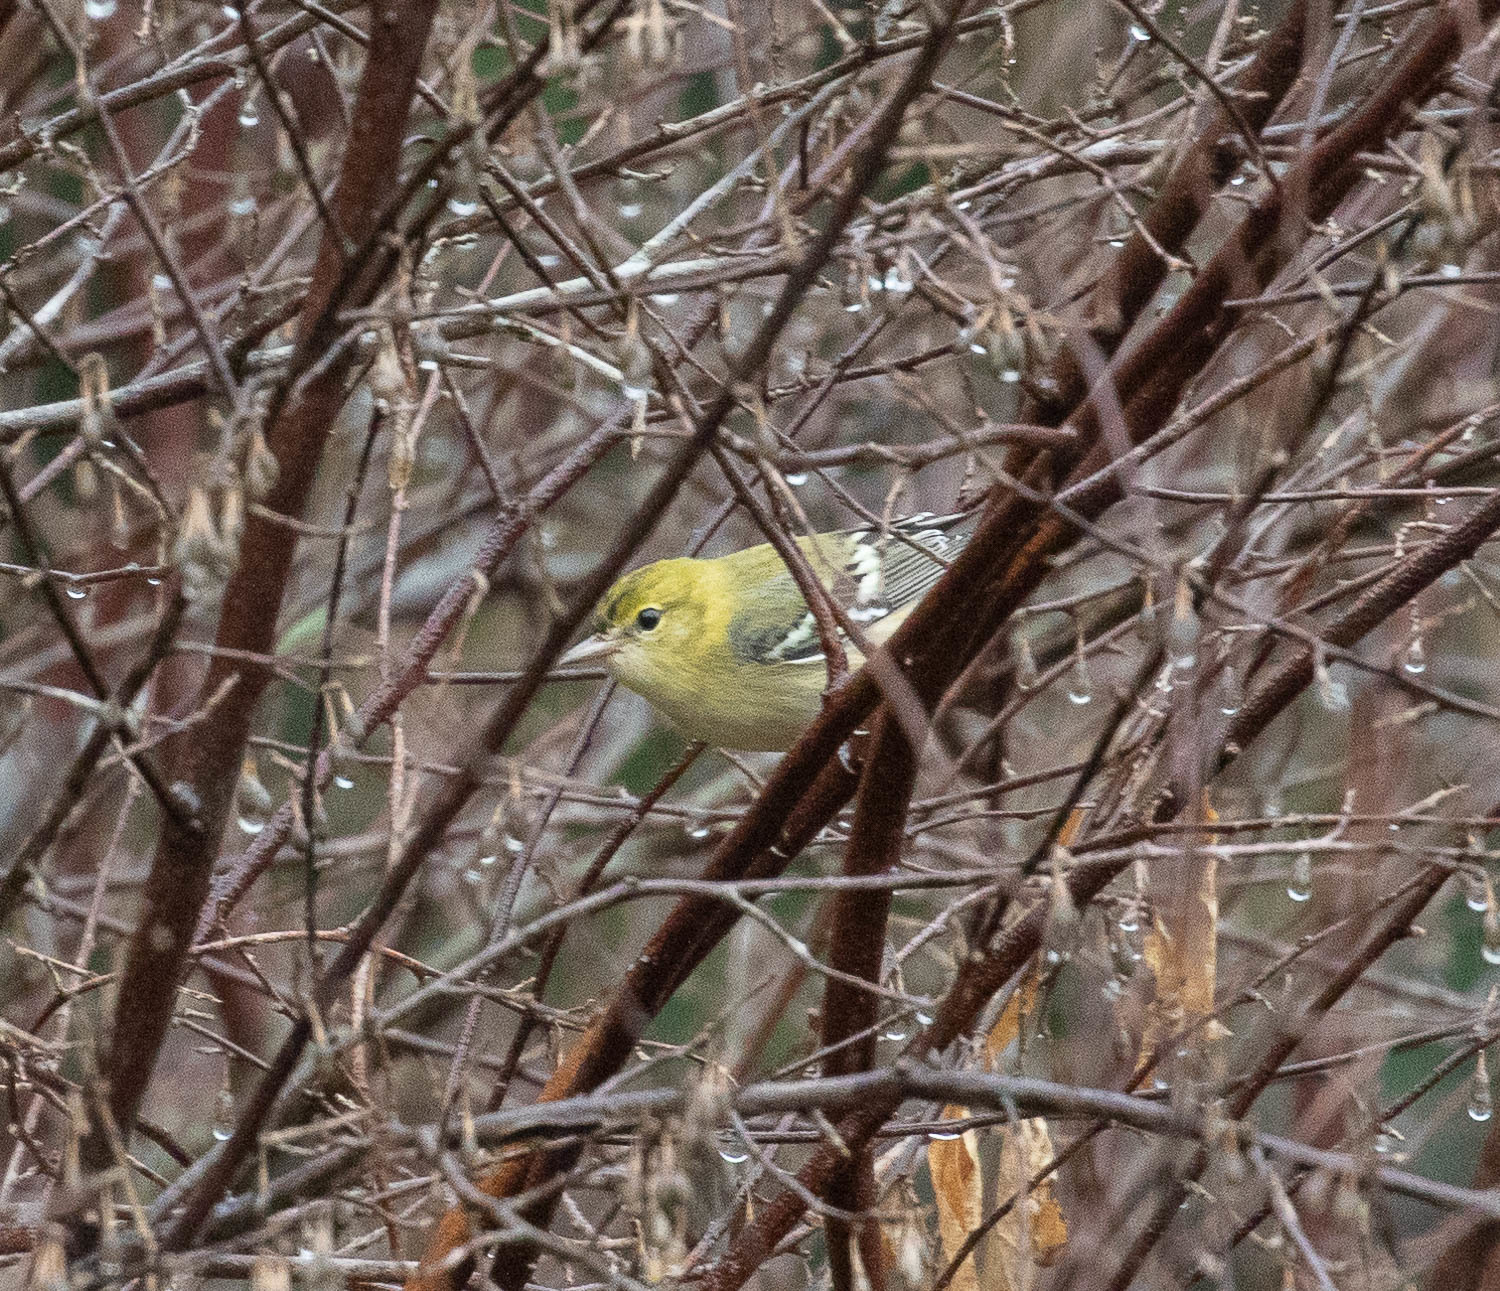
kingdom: Animalia
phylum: Chordata
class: Aves
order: Passeriformes
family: Parulidae
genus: Setophaga
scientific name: Setophaga castanea
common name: Bay-breasted warbler
